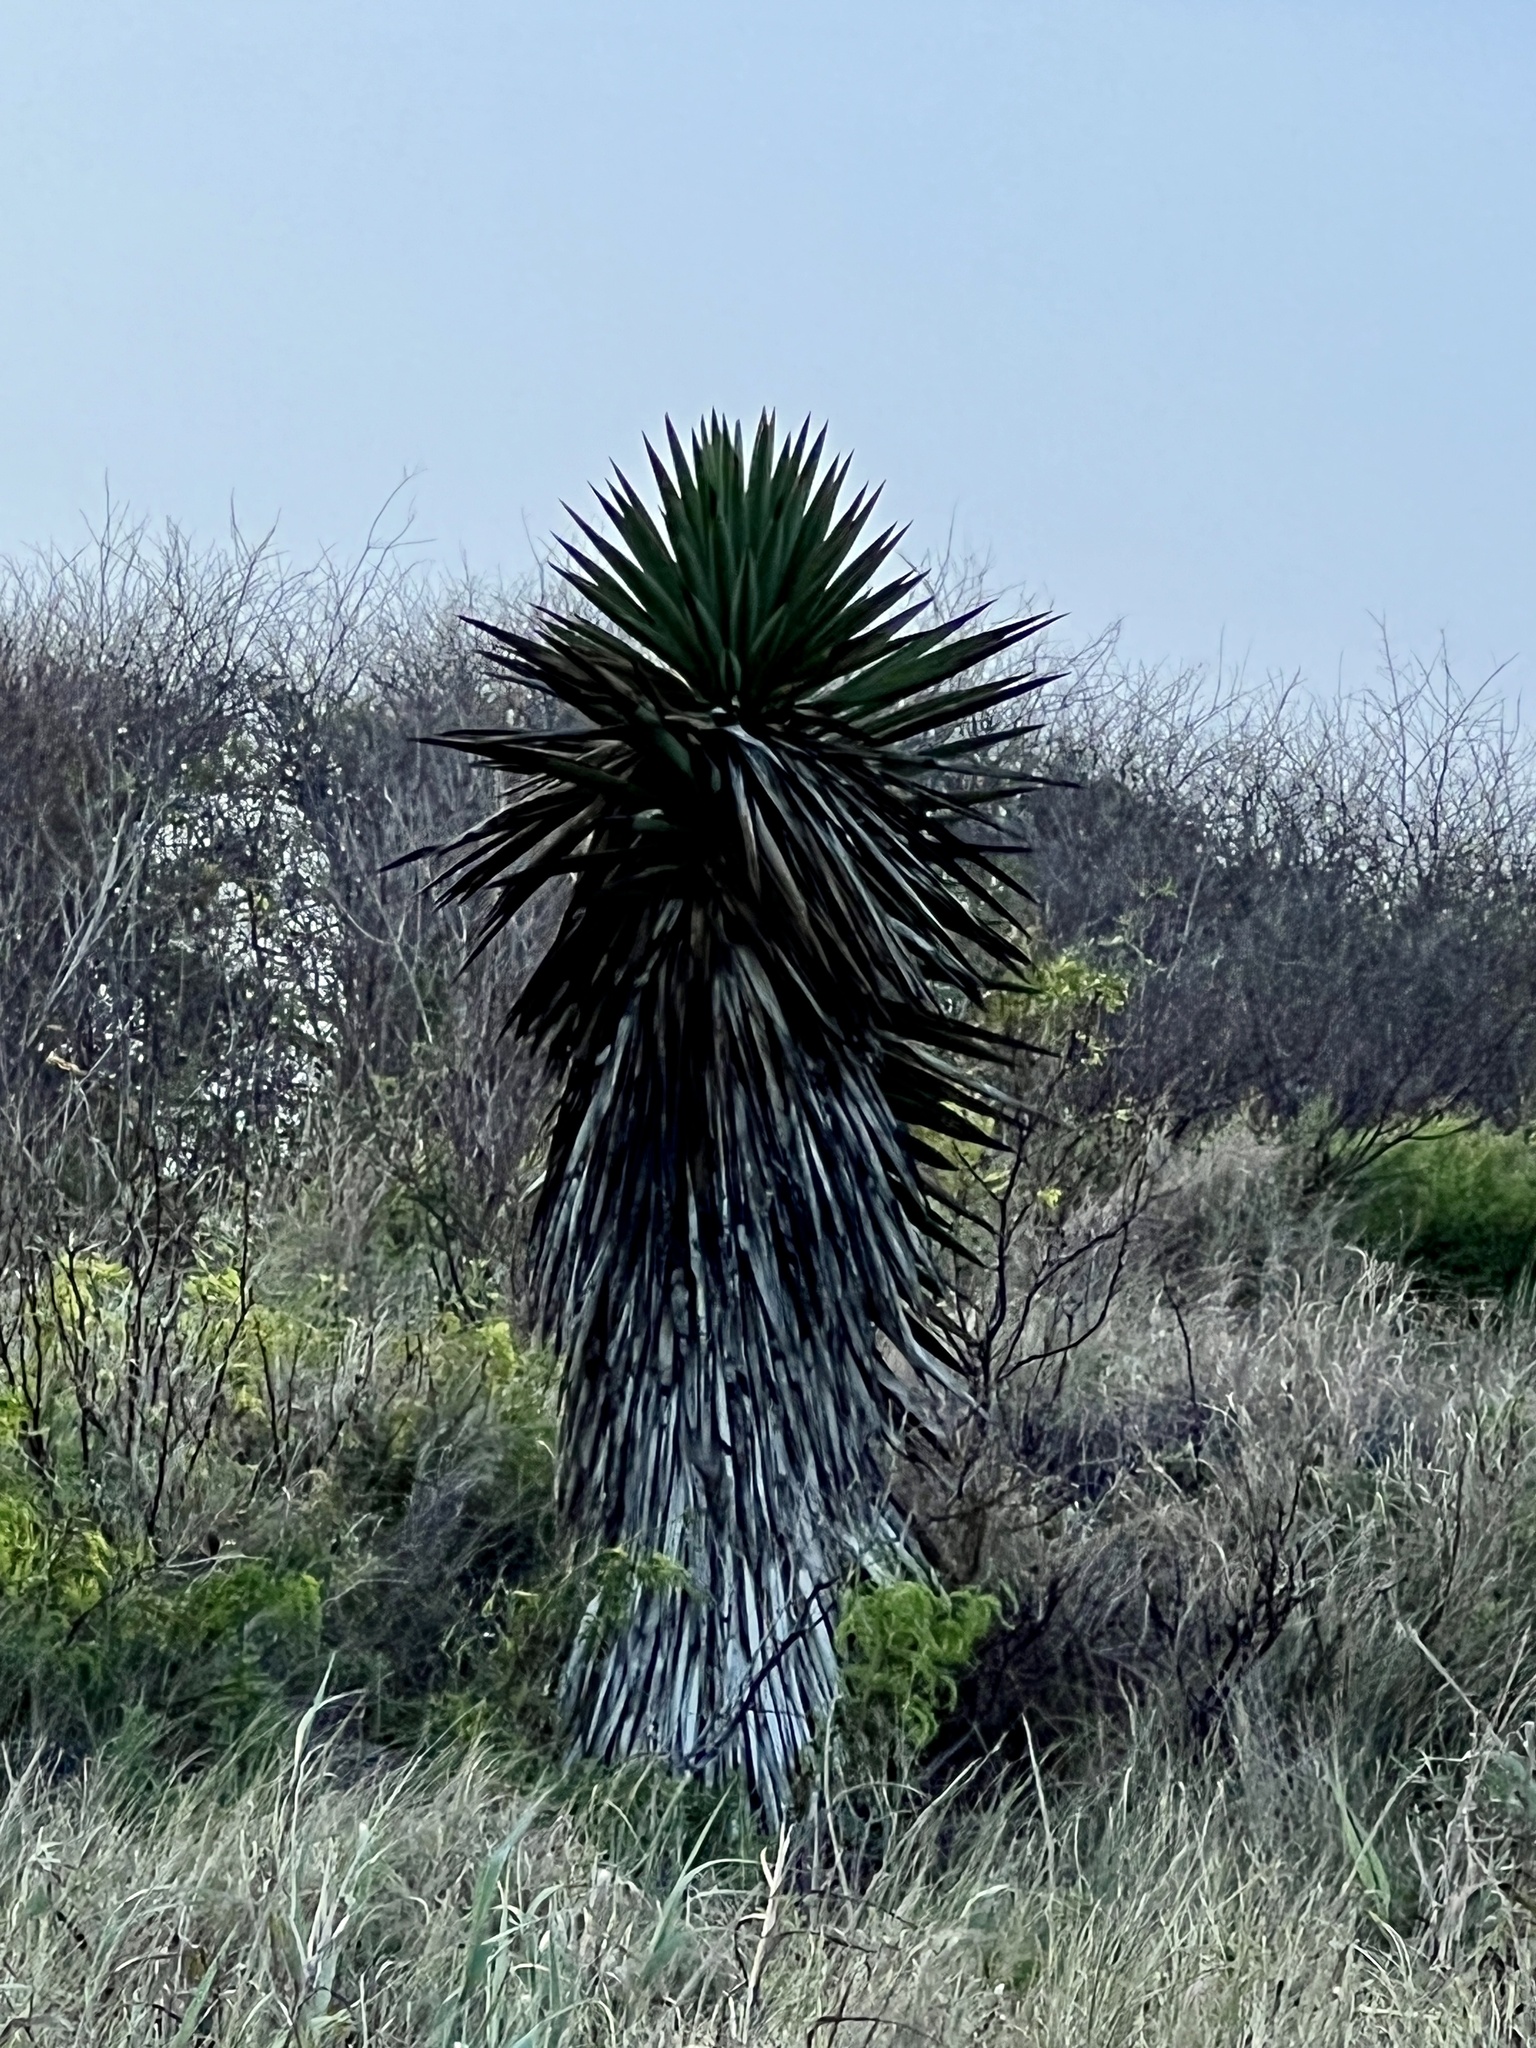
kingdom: Plantae
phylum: Tracheophyta
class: Liliopsida
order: Asparagales
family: Asparagaceae
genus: Yucca
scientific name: Yucca treculiana
